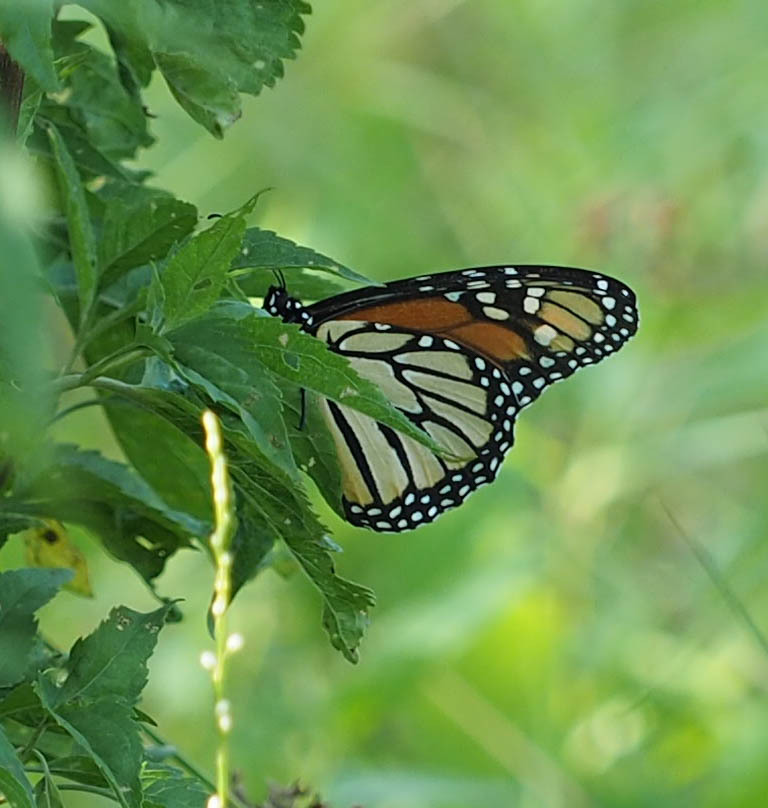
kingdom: Animalia
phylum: Arthropoda
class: Insecta
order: Lepidoptera
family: Nymphalidae
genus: Danaus
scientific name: Danaus plexippus
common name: Monarch
